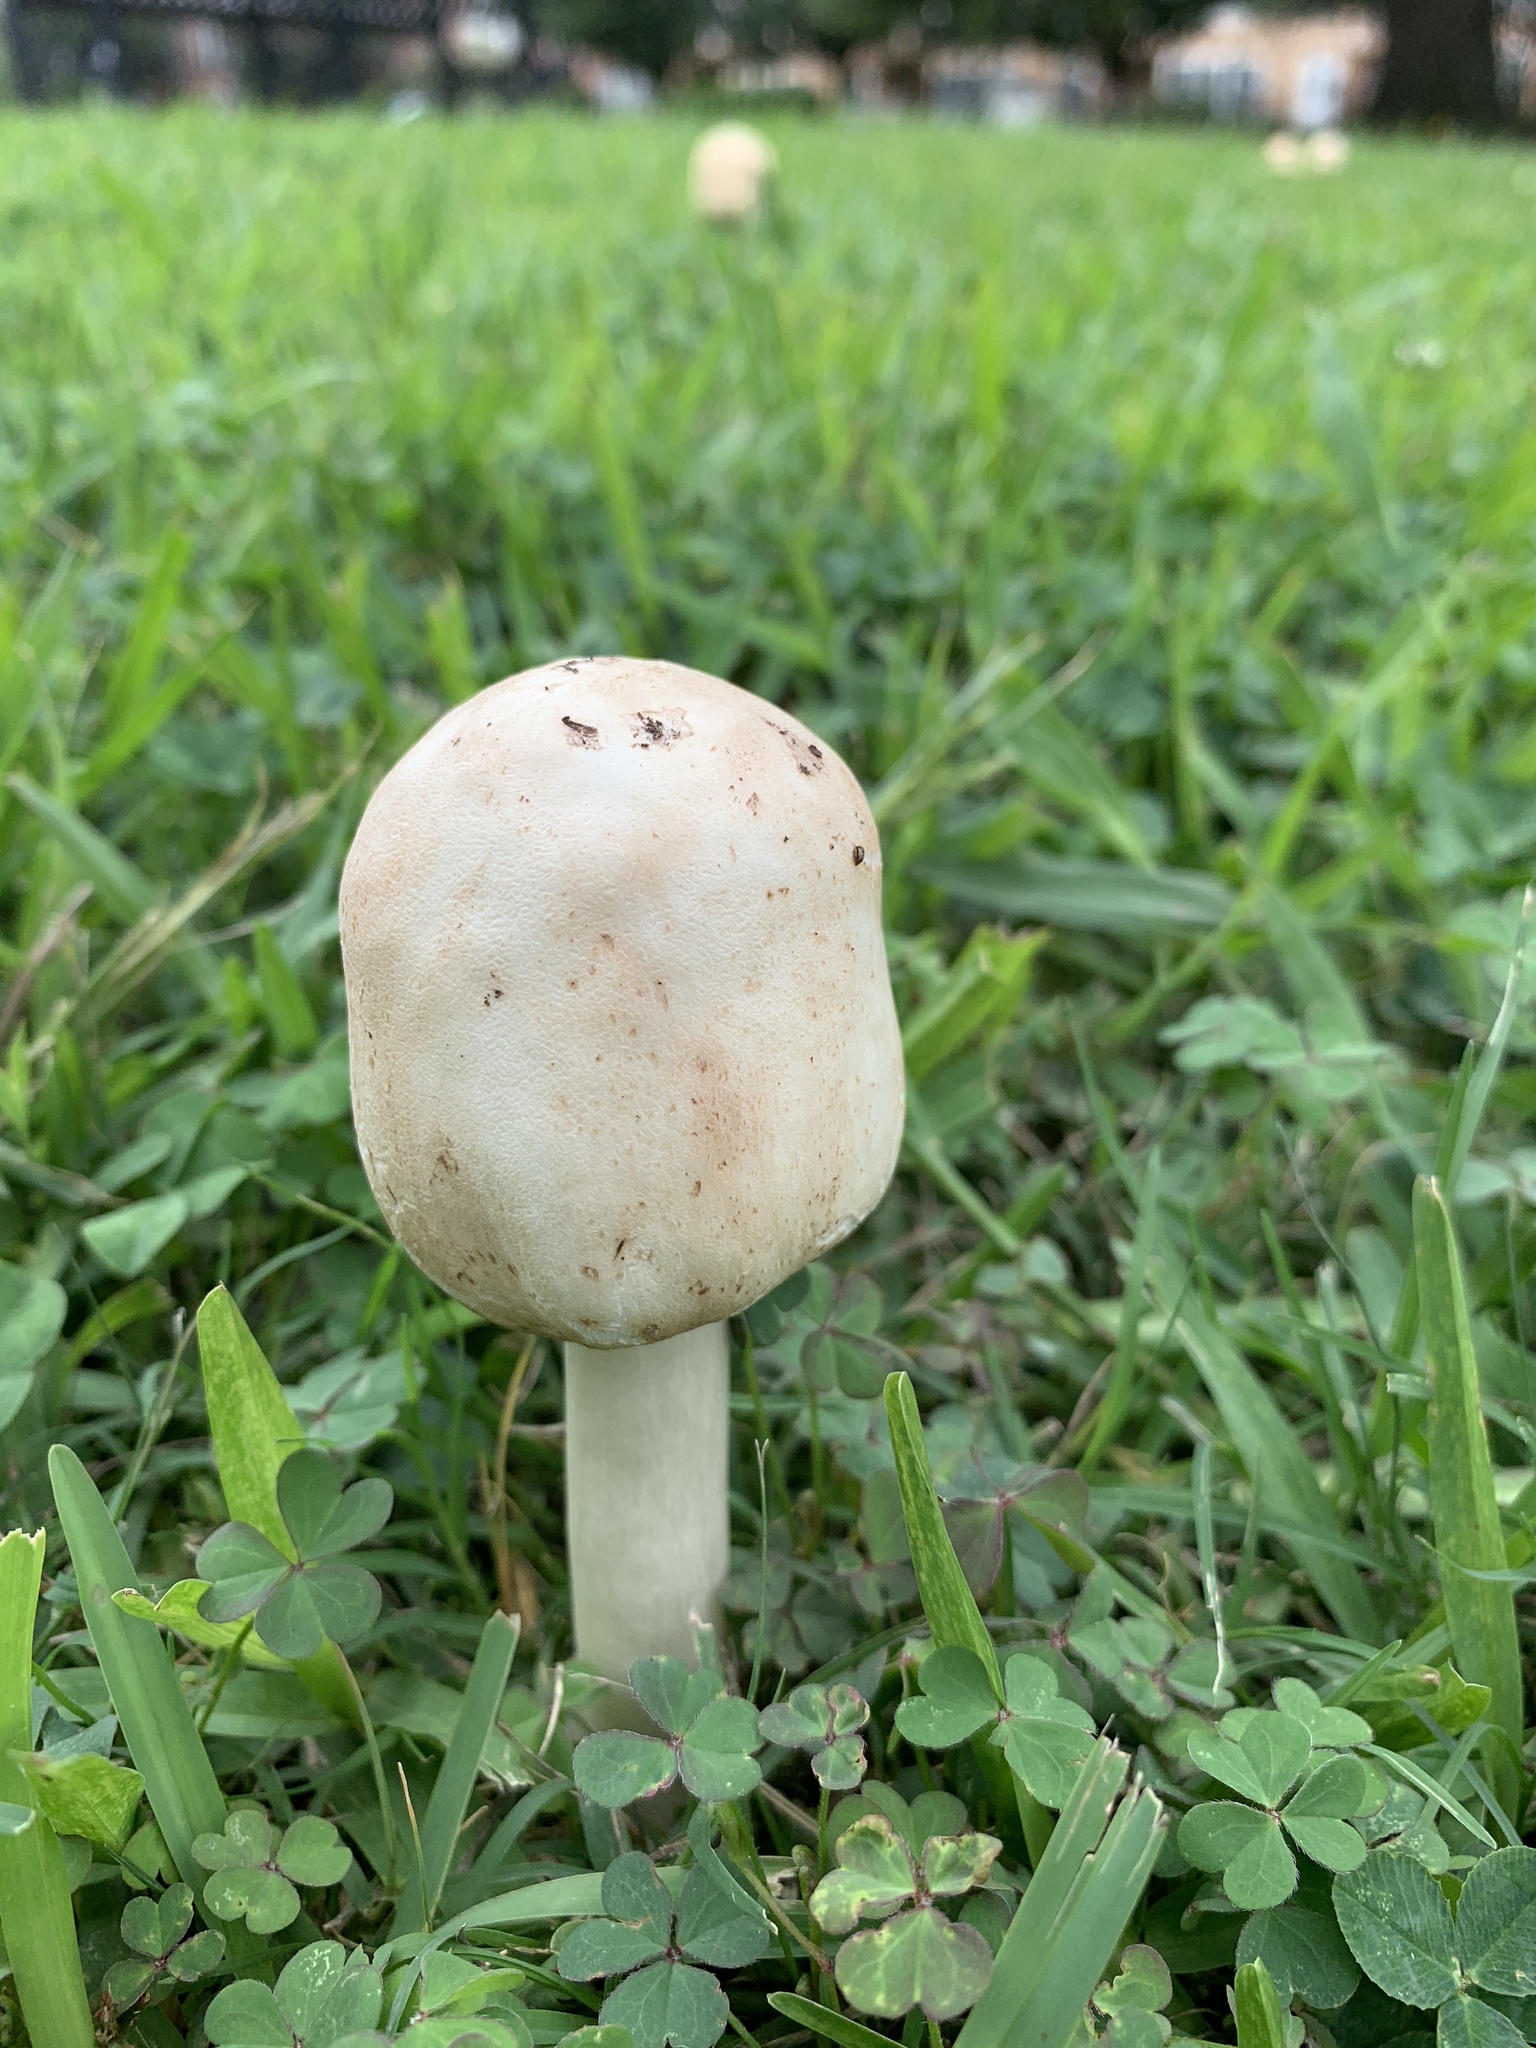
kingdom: Fungi
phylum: Basidiomycota
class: Agaricomycetes
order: Agaricales
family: Agaricaceae
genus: Chlorophyllum
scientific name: Chlorophyllum molybdites
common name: False parasol
